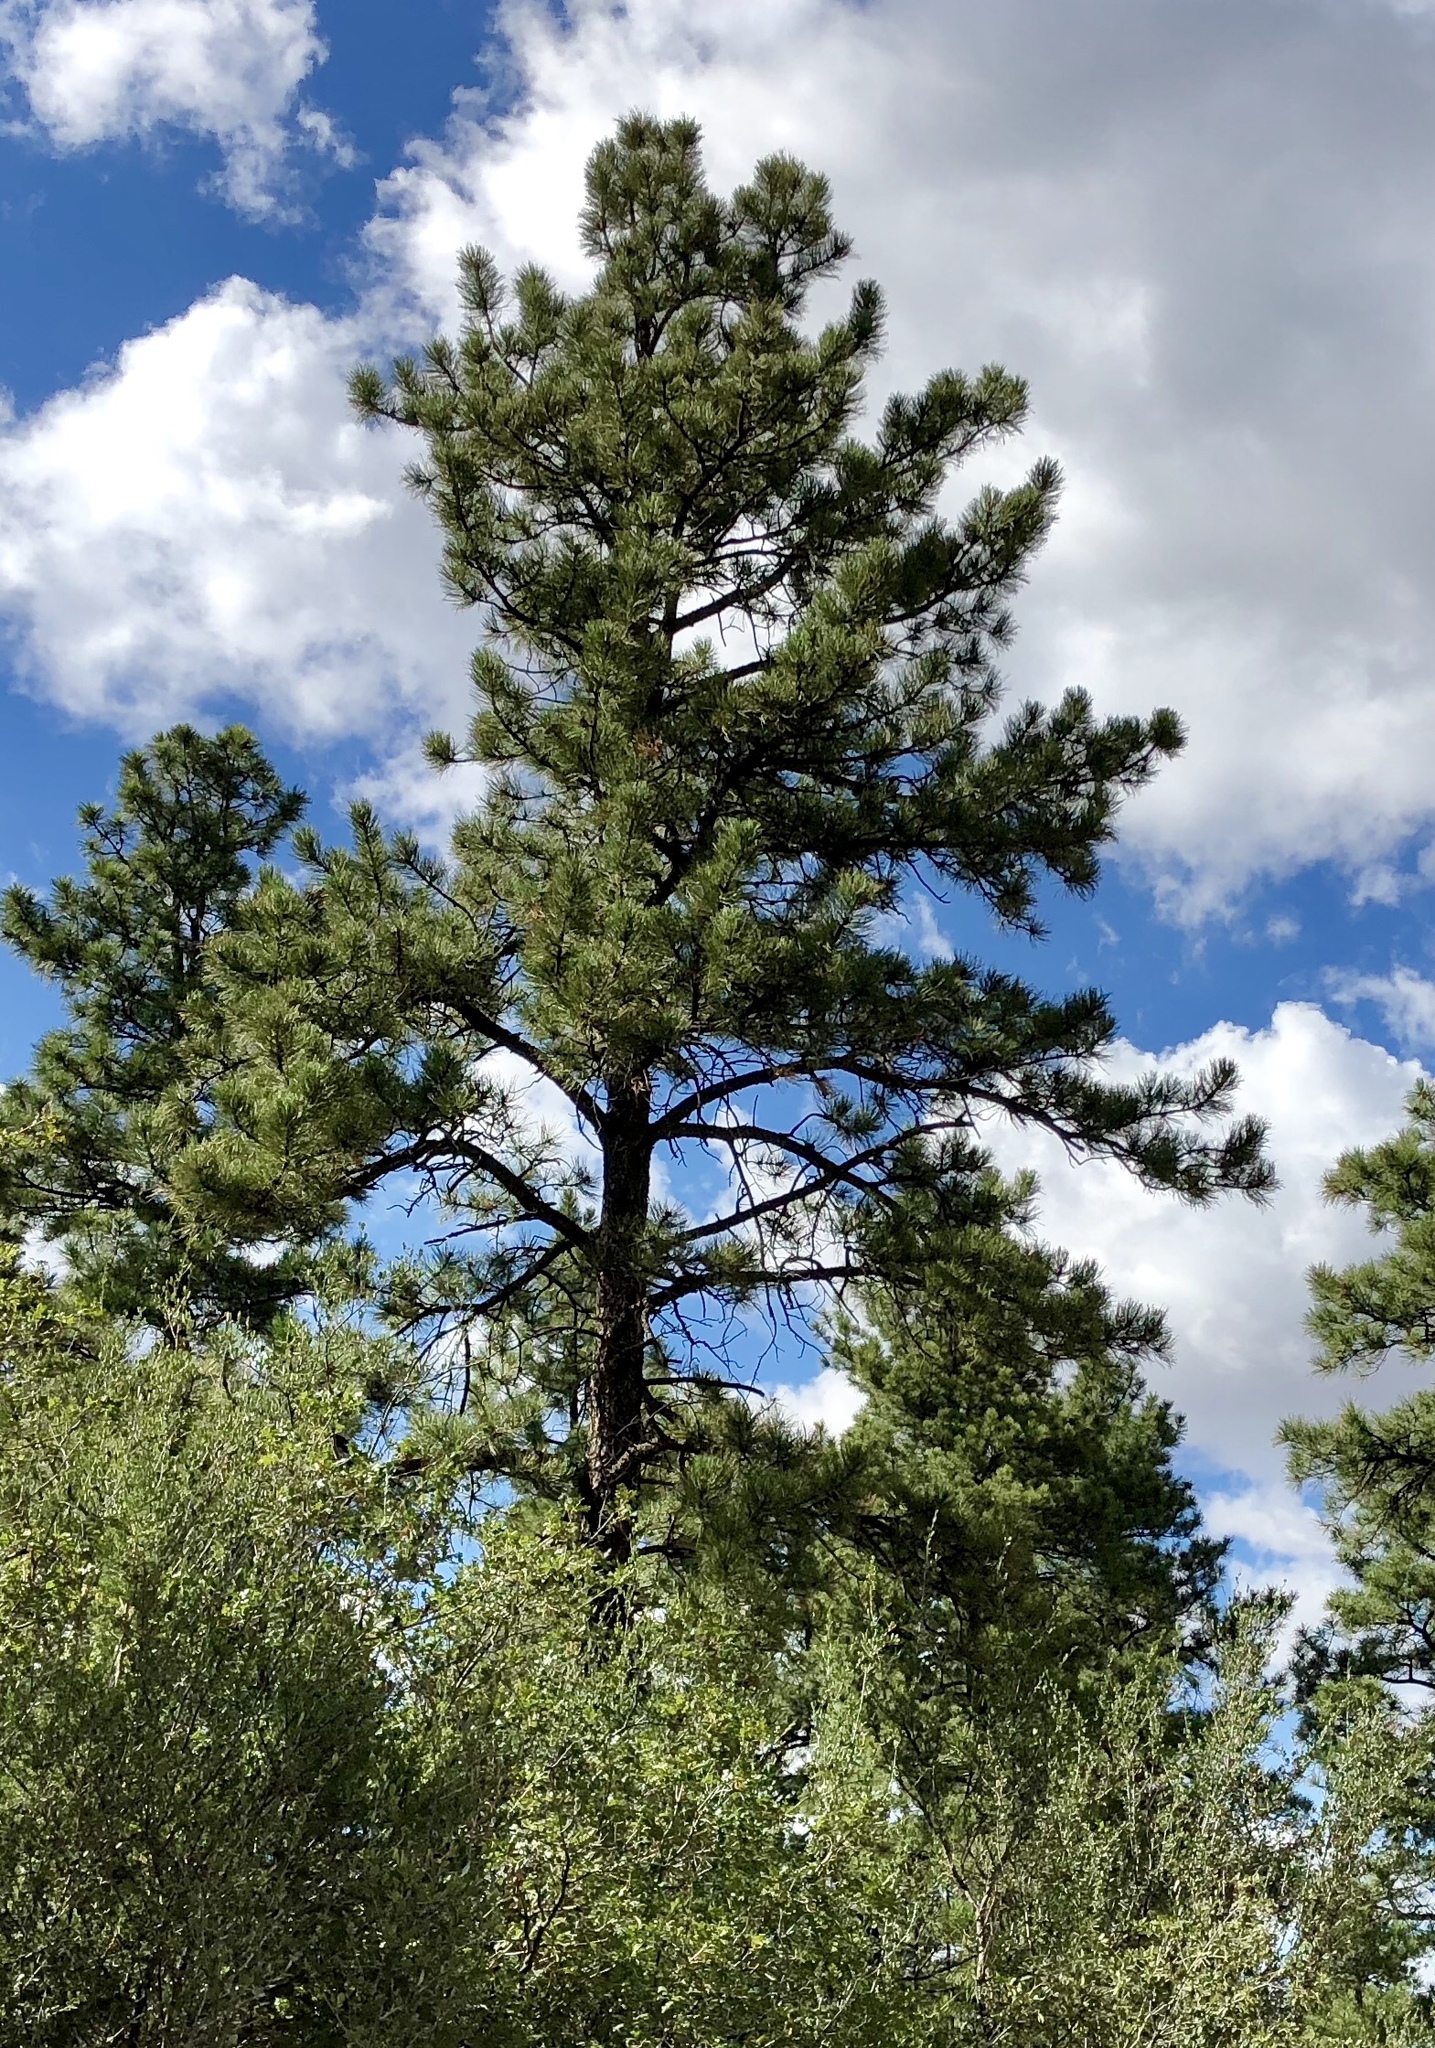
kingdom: Plantae
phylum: Tracheophyta
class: Pinopsida
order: Pinales
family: Pinaceae
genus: Pinus
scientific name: Pinus ponderosa
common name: Western yellow-pine
